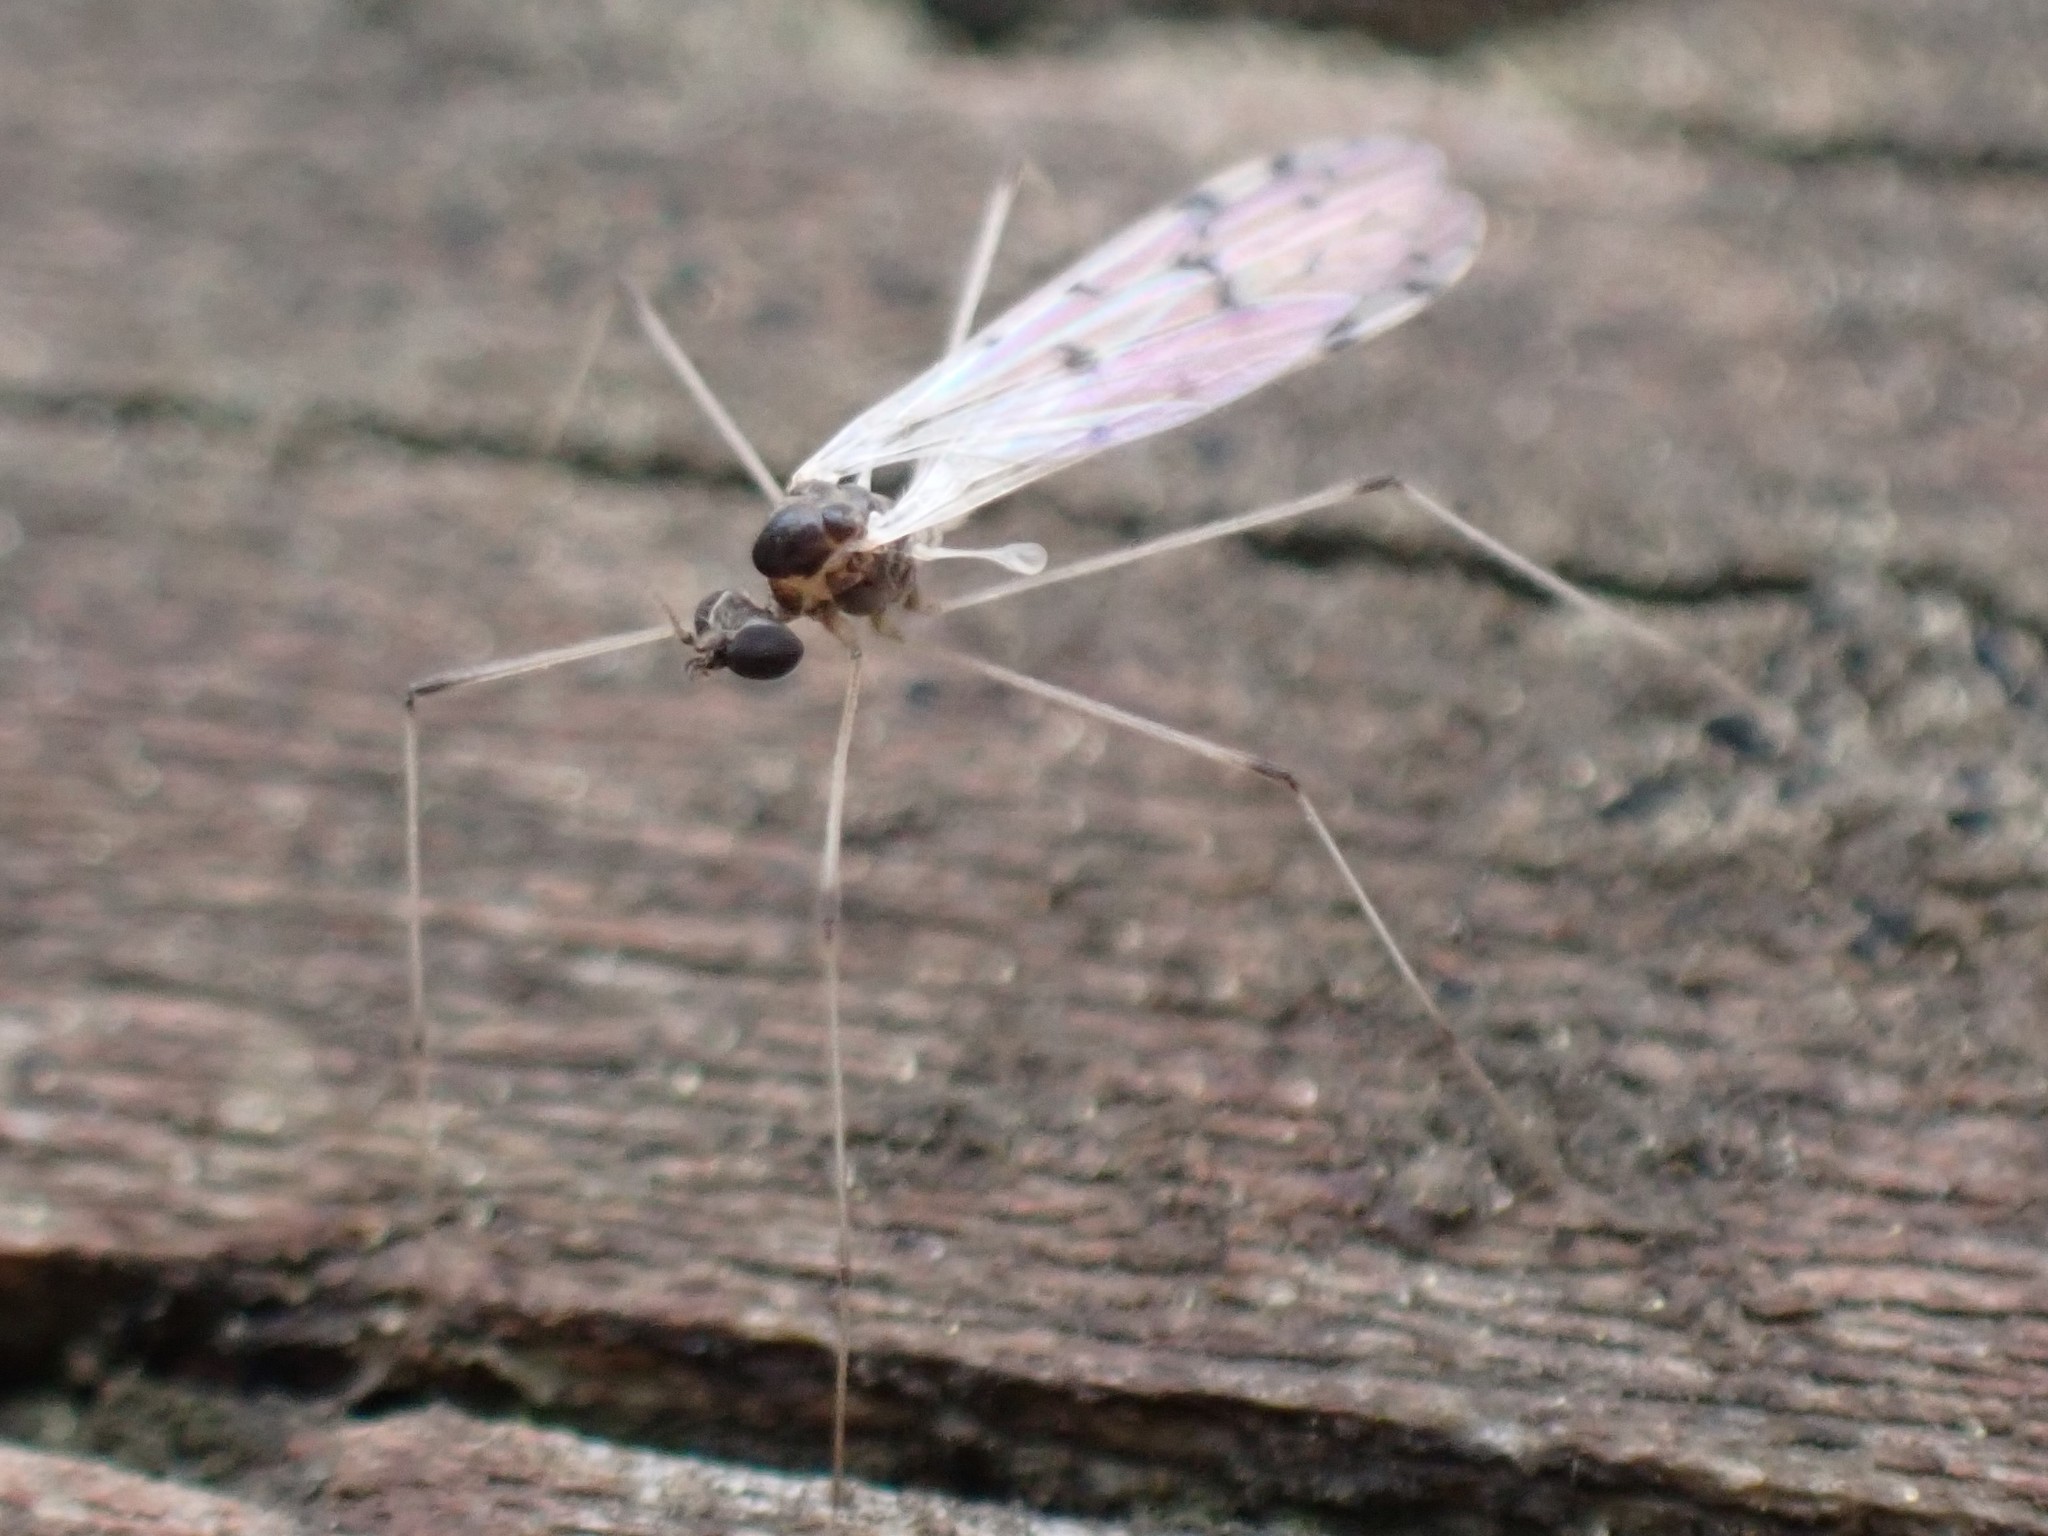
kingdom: Animalia
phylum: Arthropoda
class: Insecta
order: Diptera
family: Pediciidae
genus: Dicranota
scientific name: Dicranota maculata
